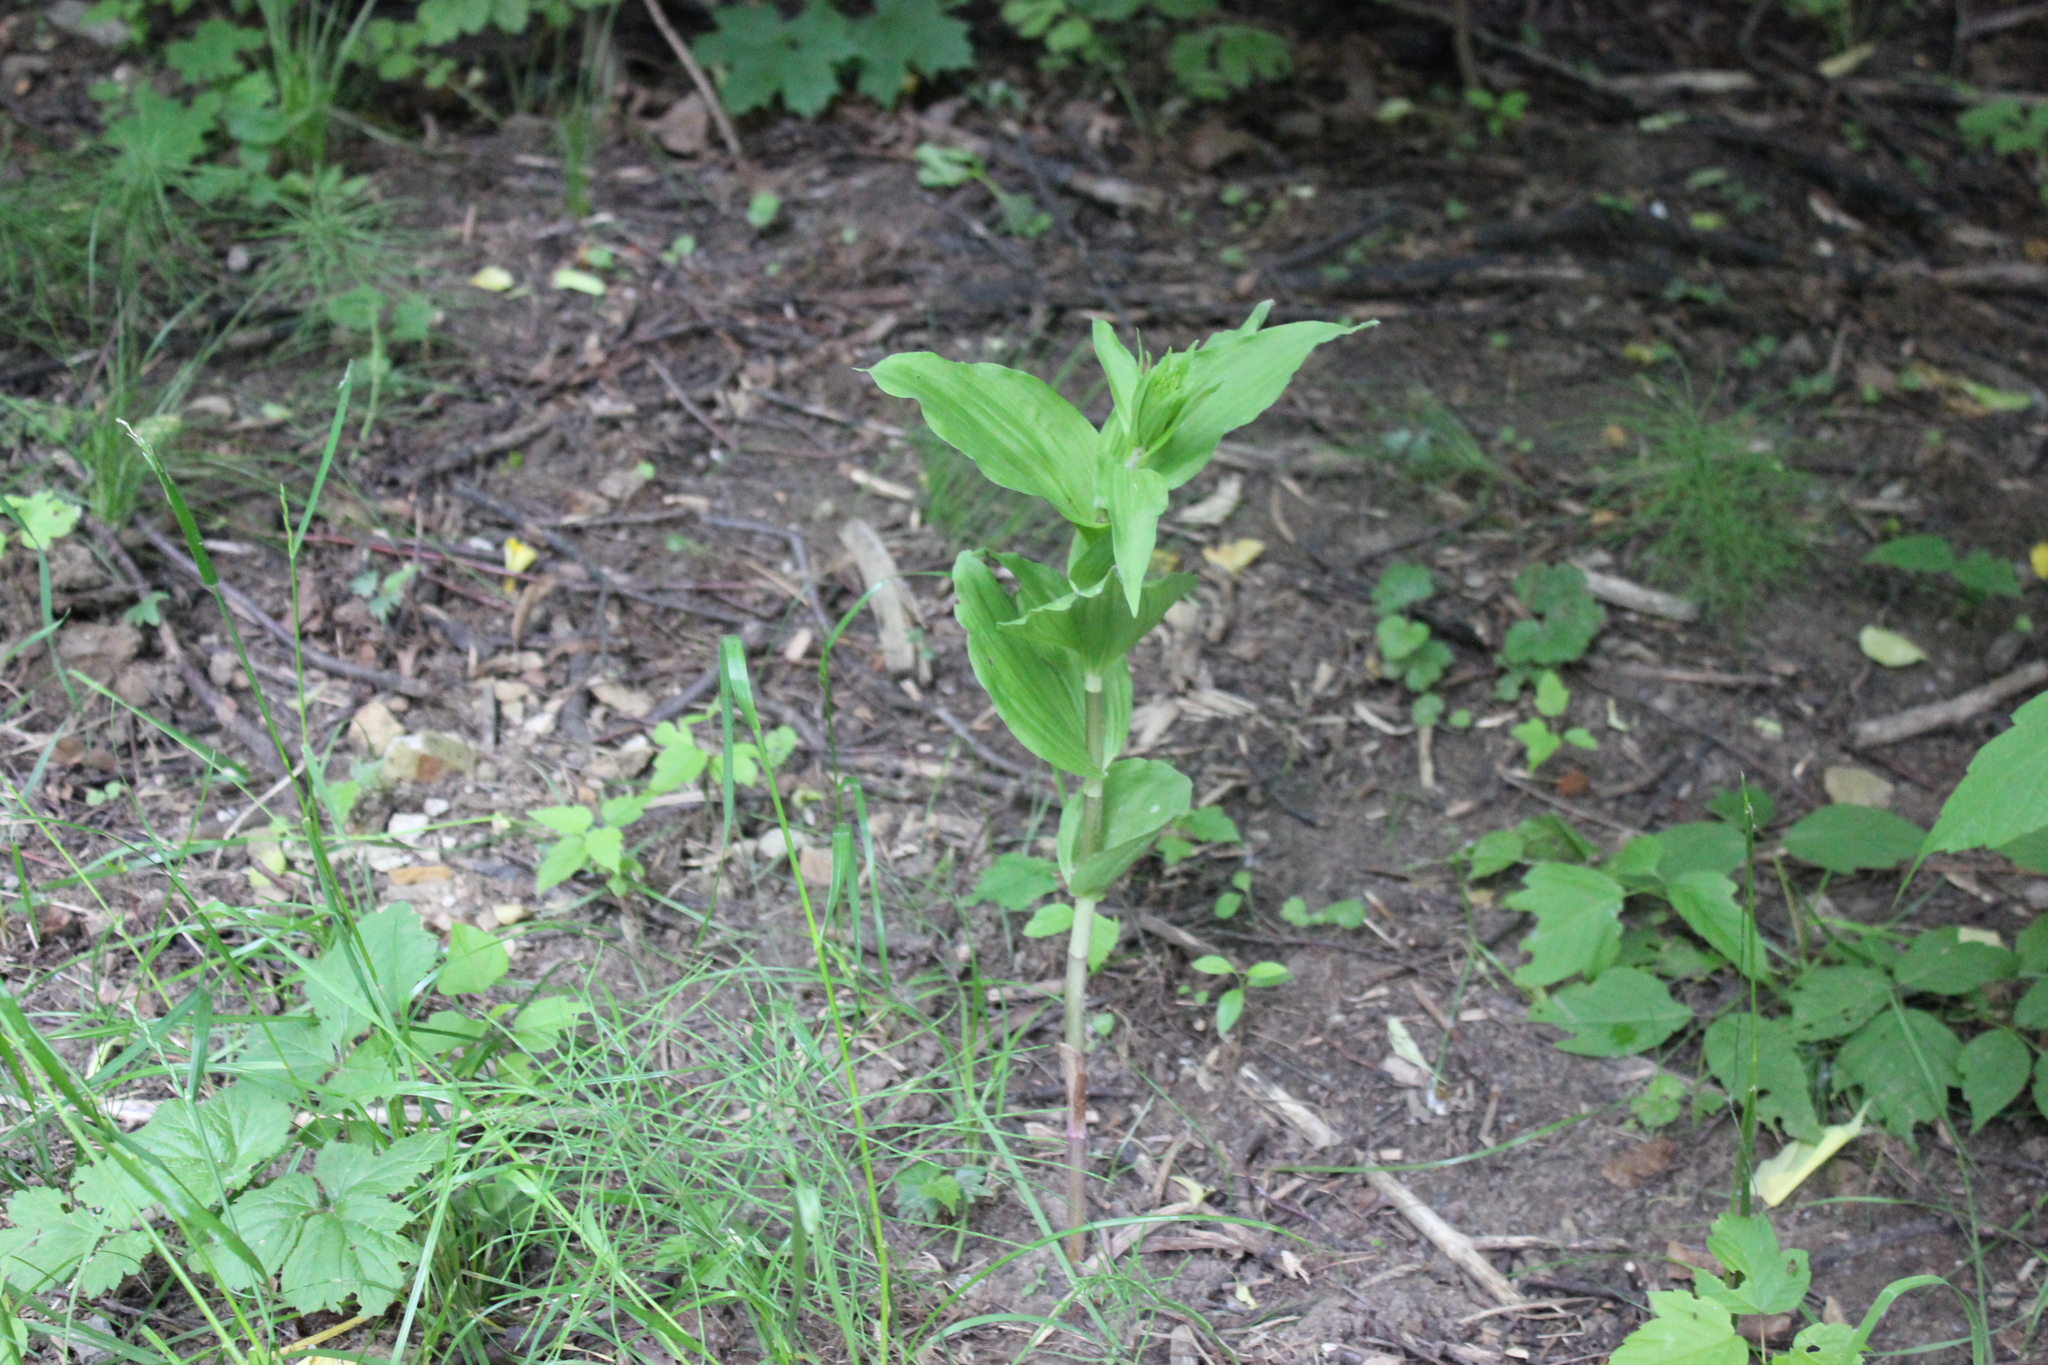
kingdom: Plantae
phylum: Tracheophyta
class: Liliopsida
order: Asparagales
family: Orchidaceae
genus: Epipactis
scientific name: Epipactis helleborine
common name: Broad-leaved helleborine
